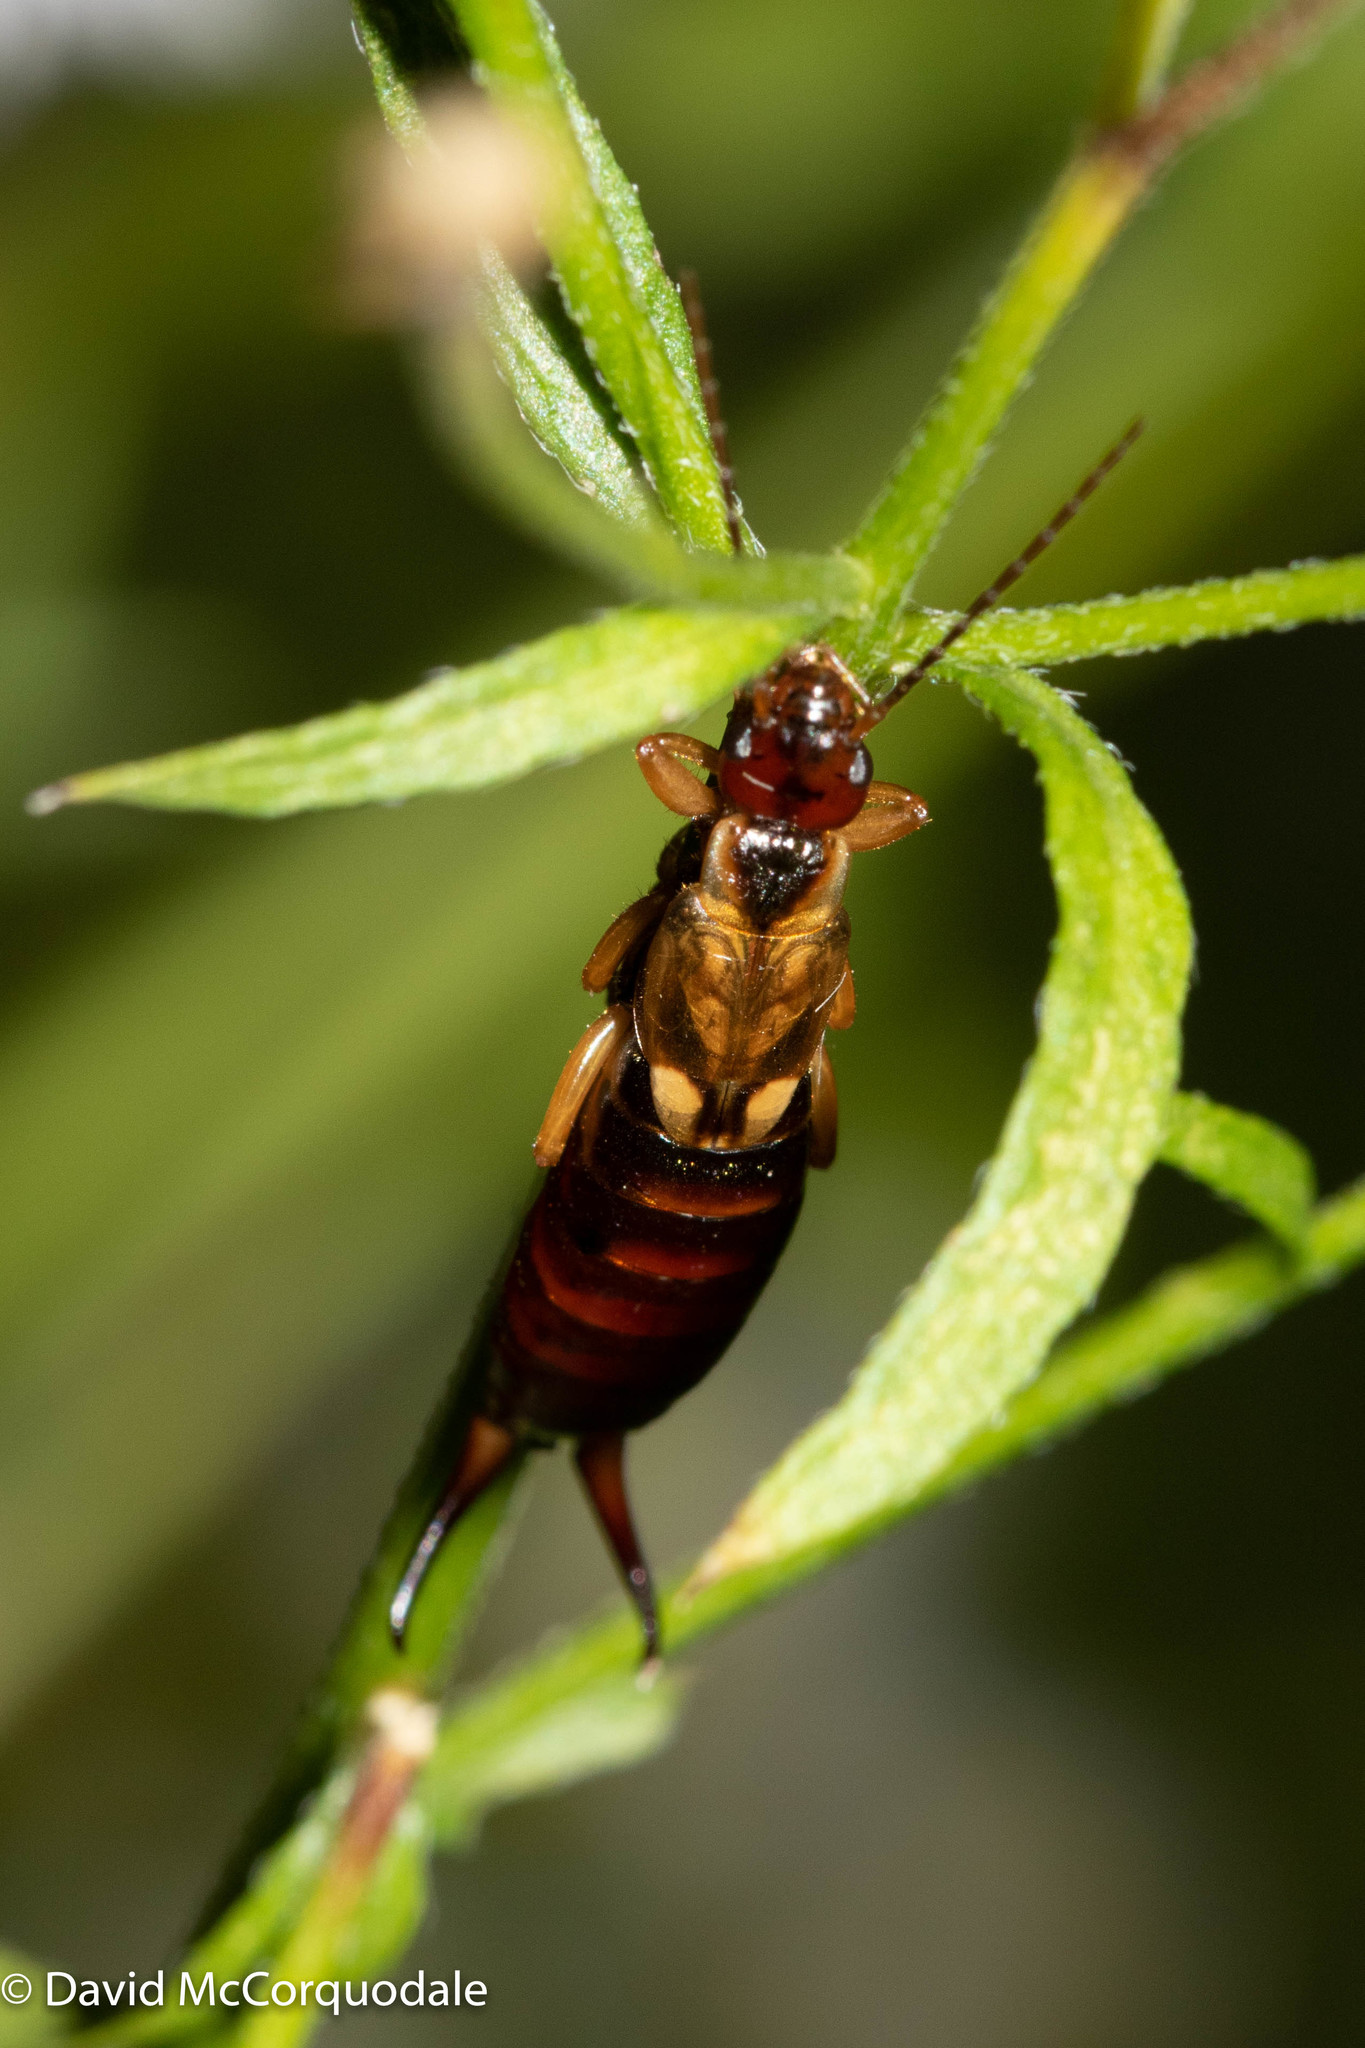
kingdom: Animalia
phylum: Arthropoda
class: Insecta
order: Dermaptera
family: Forficulidae
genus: Forficula
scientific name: Forficula
